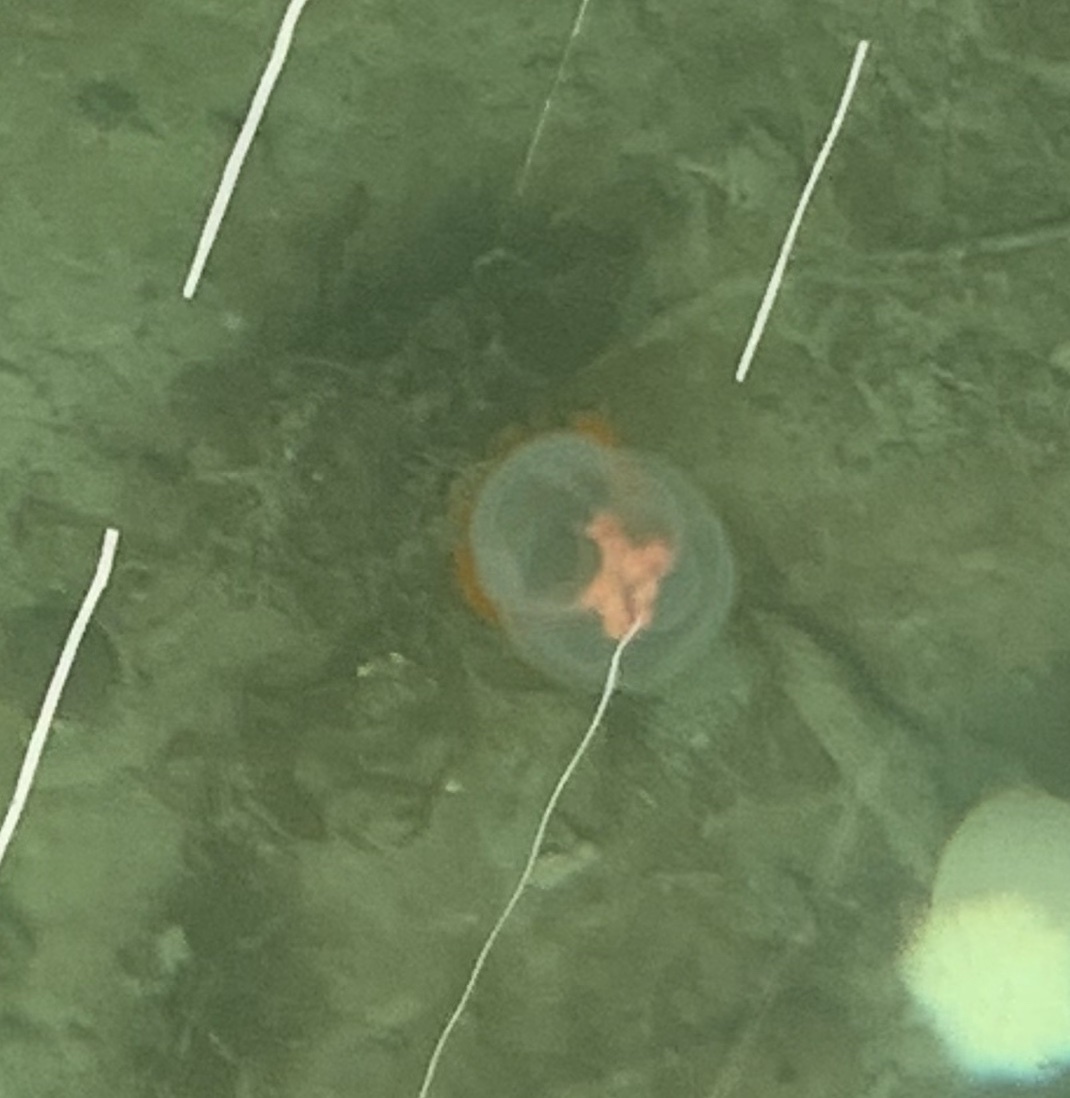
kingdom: Animalia
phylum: Cnidaria
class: Hydrozoa
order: Anthoathecata
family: Pandeidae
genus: Neoturris
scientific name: Neoturris breviconis
